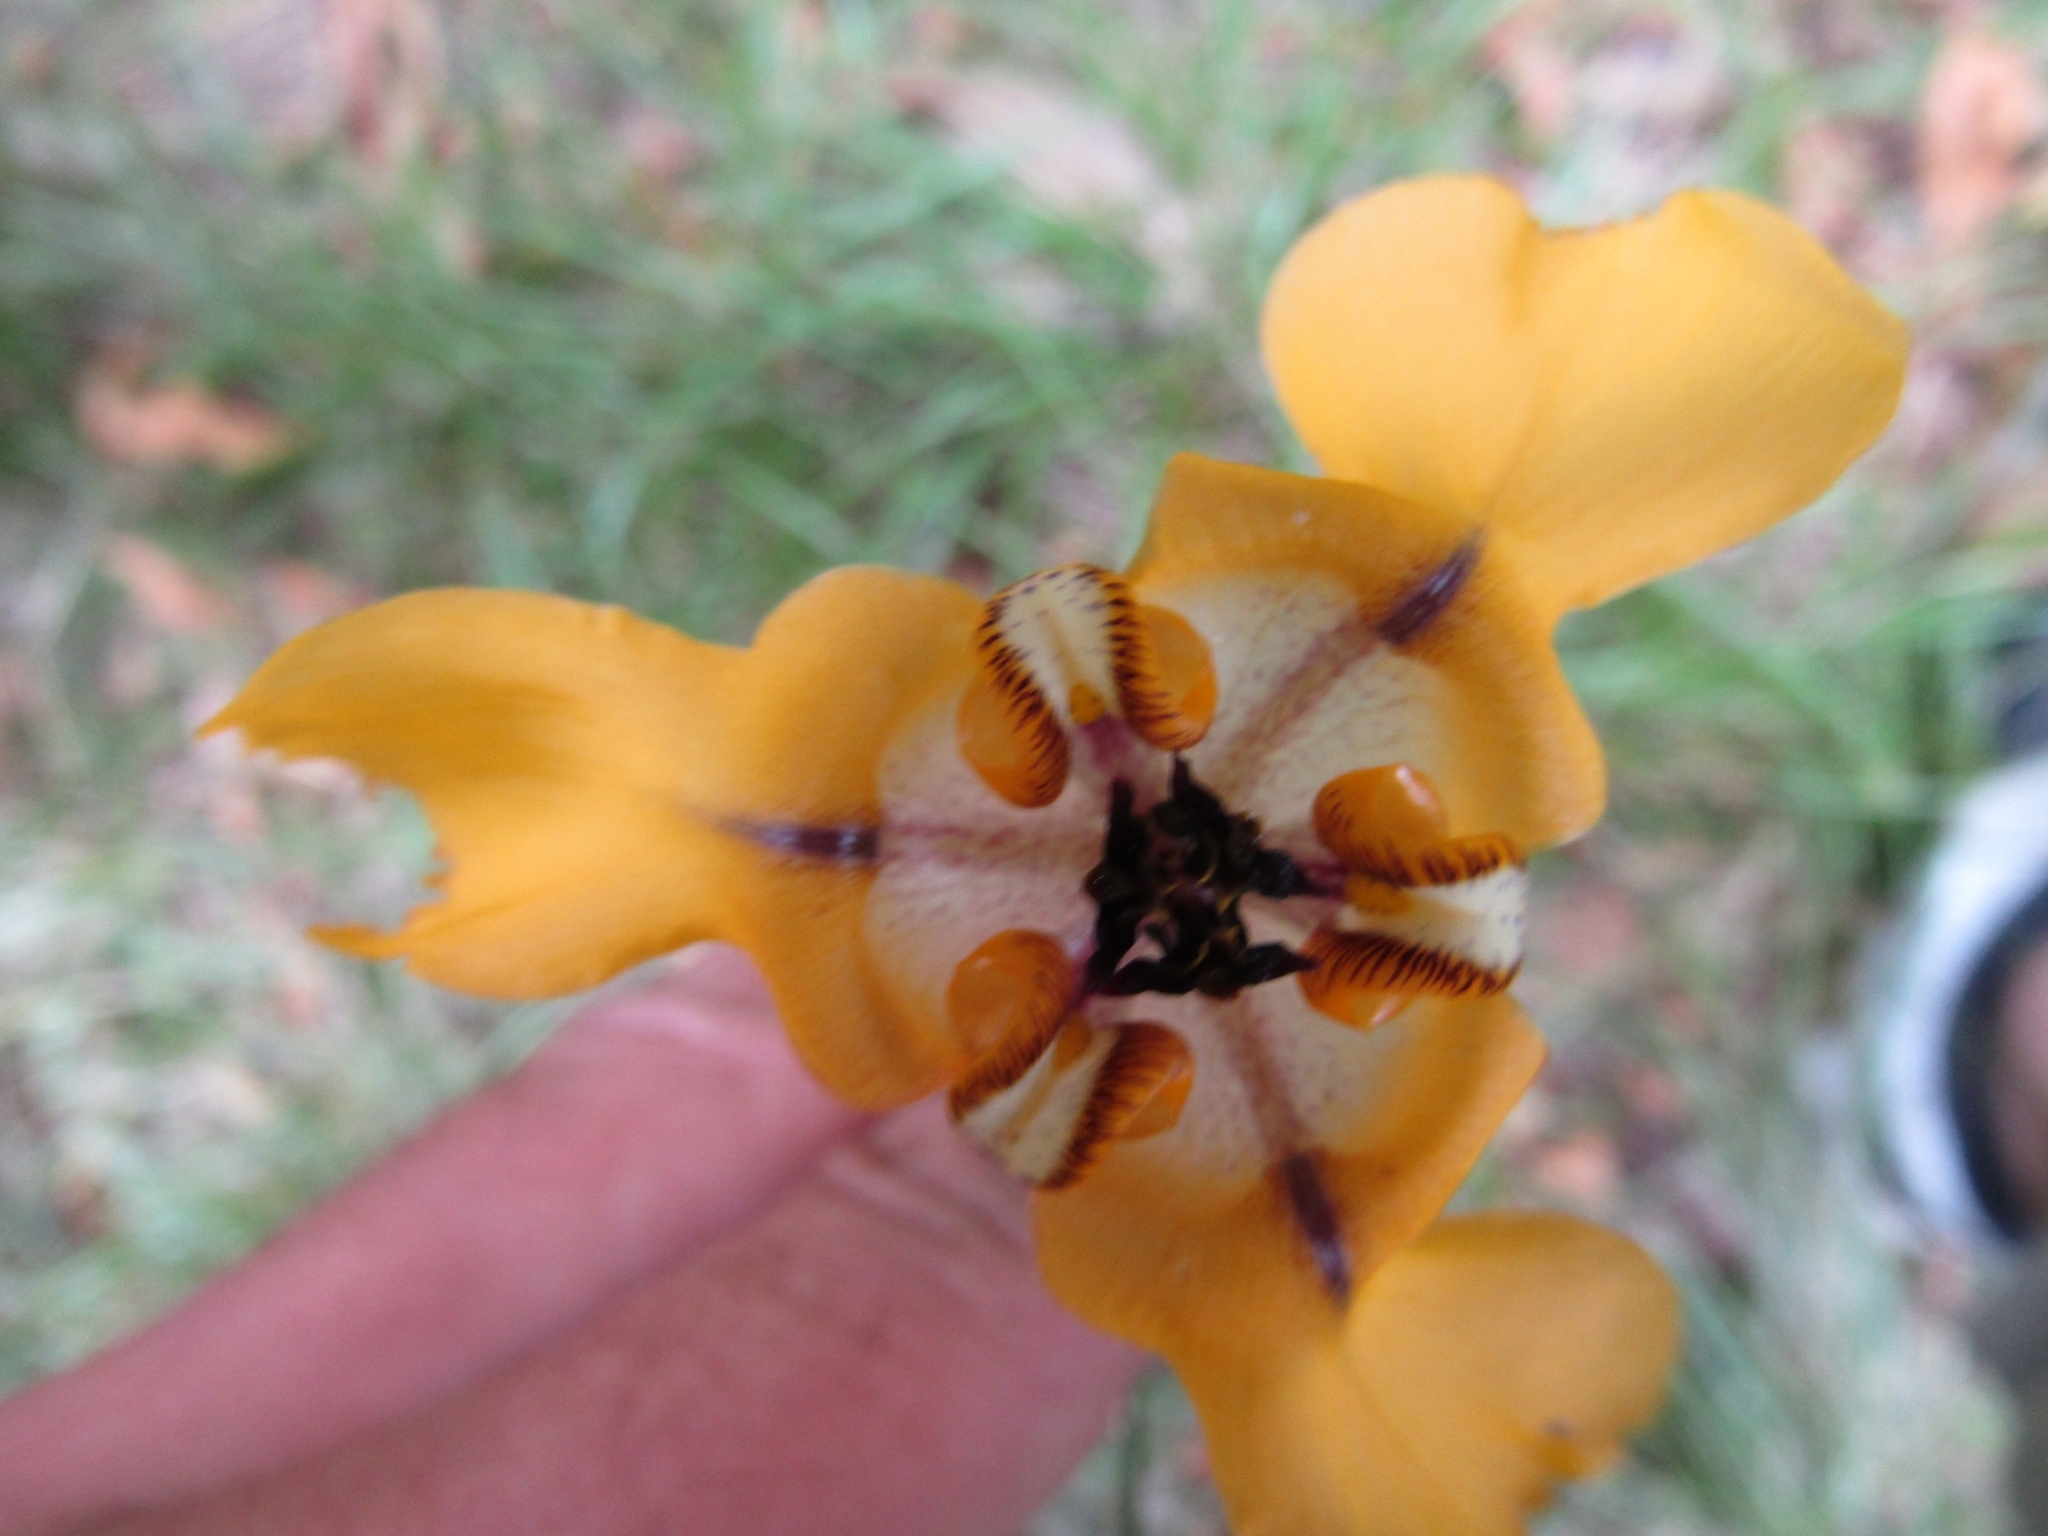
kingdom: Plantae
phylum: Tracheophyta
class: Liliopsida
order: Asparagales
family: Iridaceae
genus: Cypella
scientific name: Cypella herbertii
